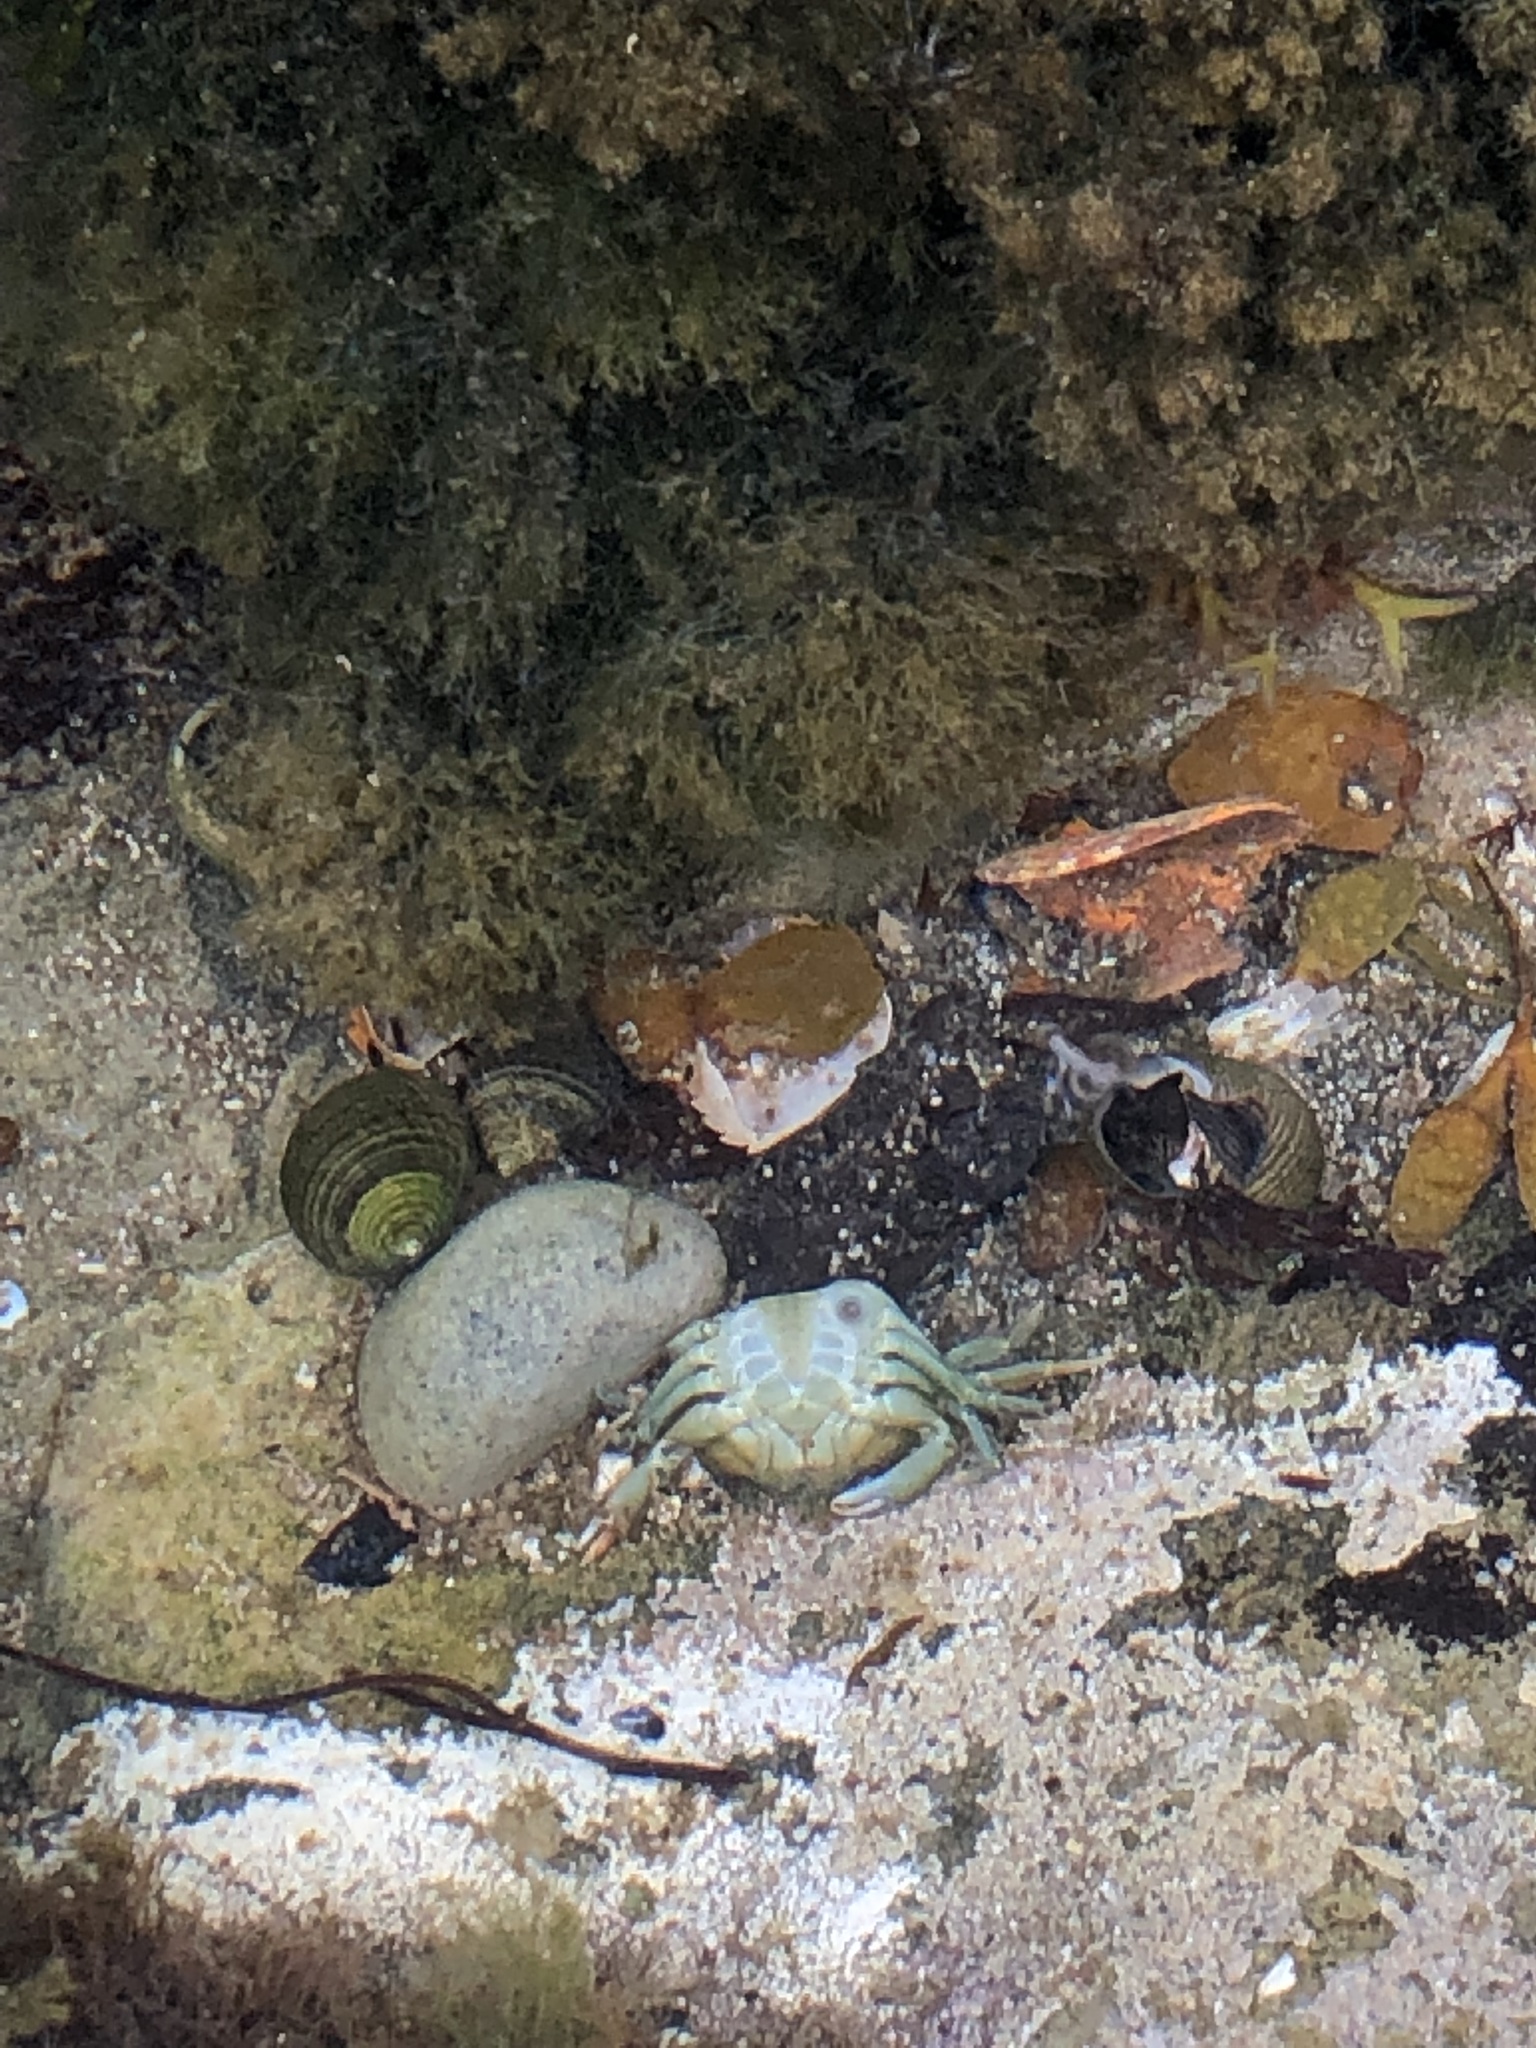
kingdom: Animalia
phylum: Arthropoda
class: Malacostraca
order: Decapoda
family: Carcinidae
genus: Carcinus
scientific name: Carcinus maenas
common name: European green crab
